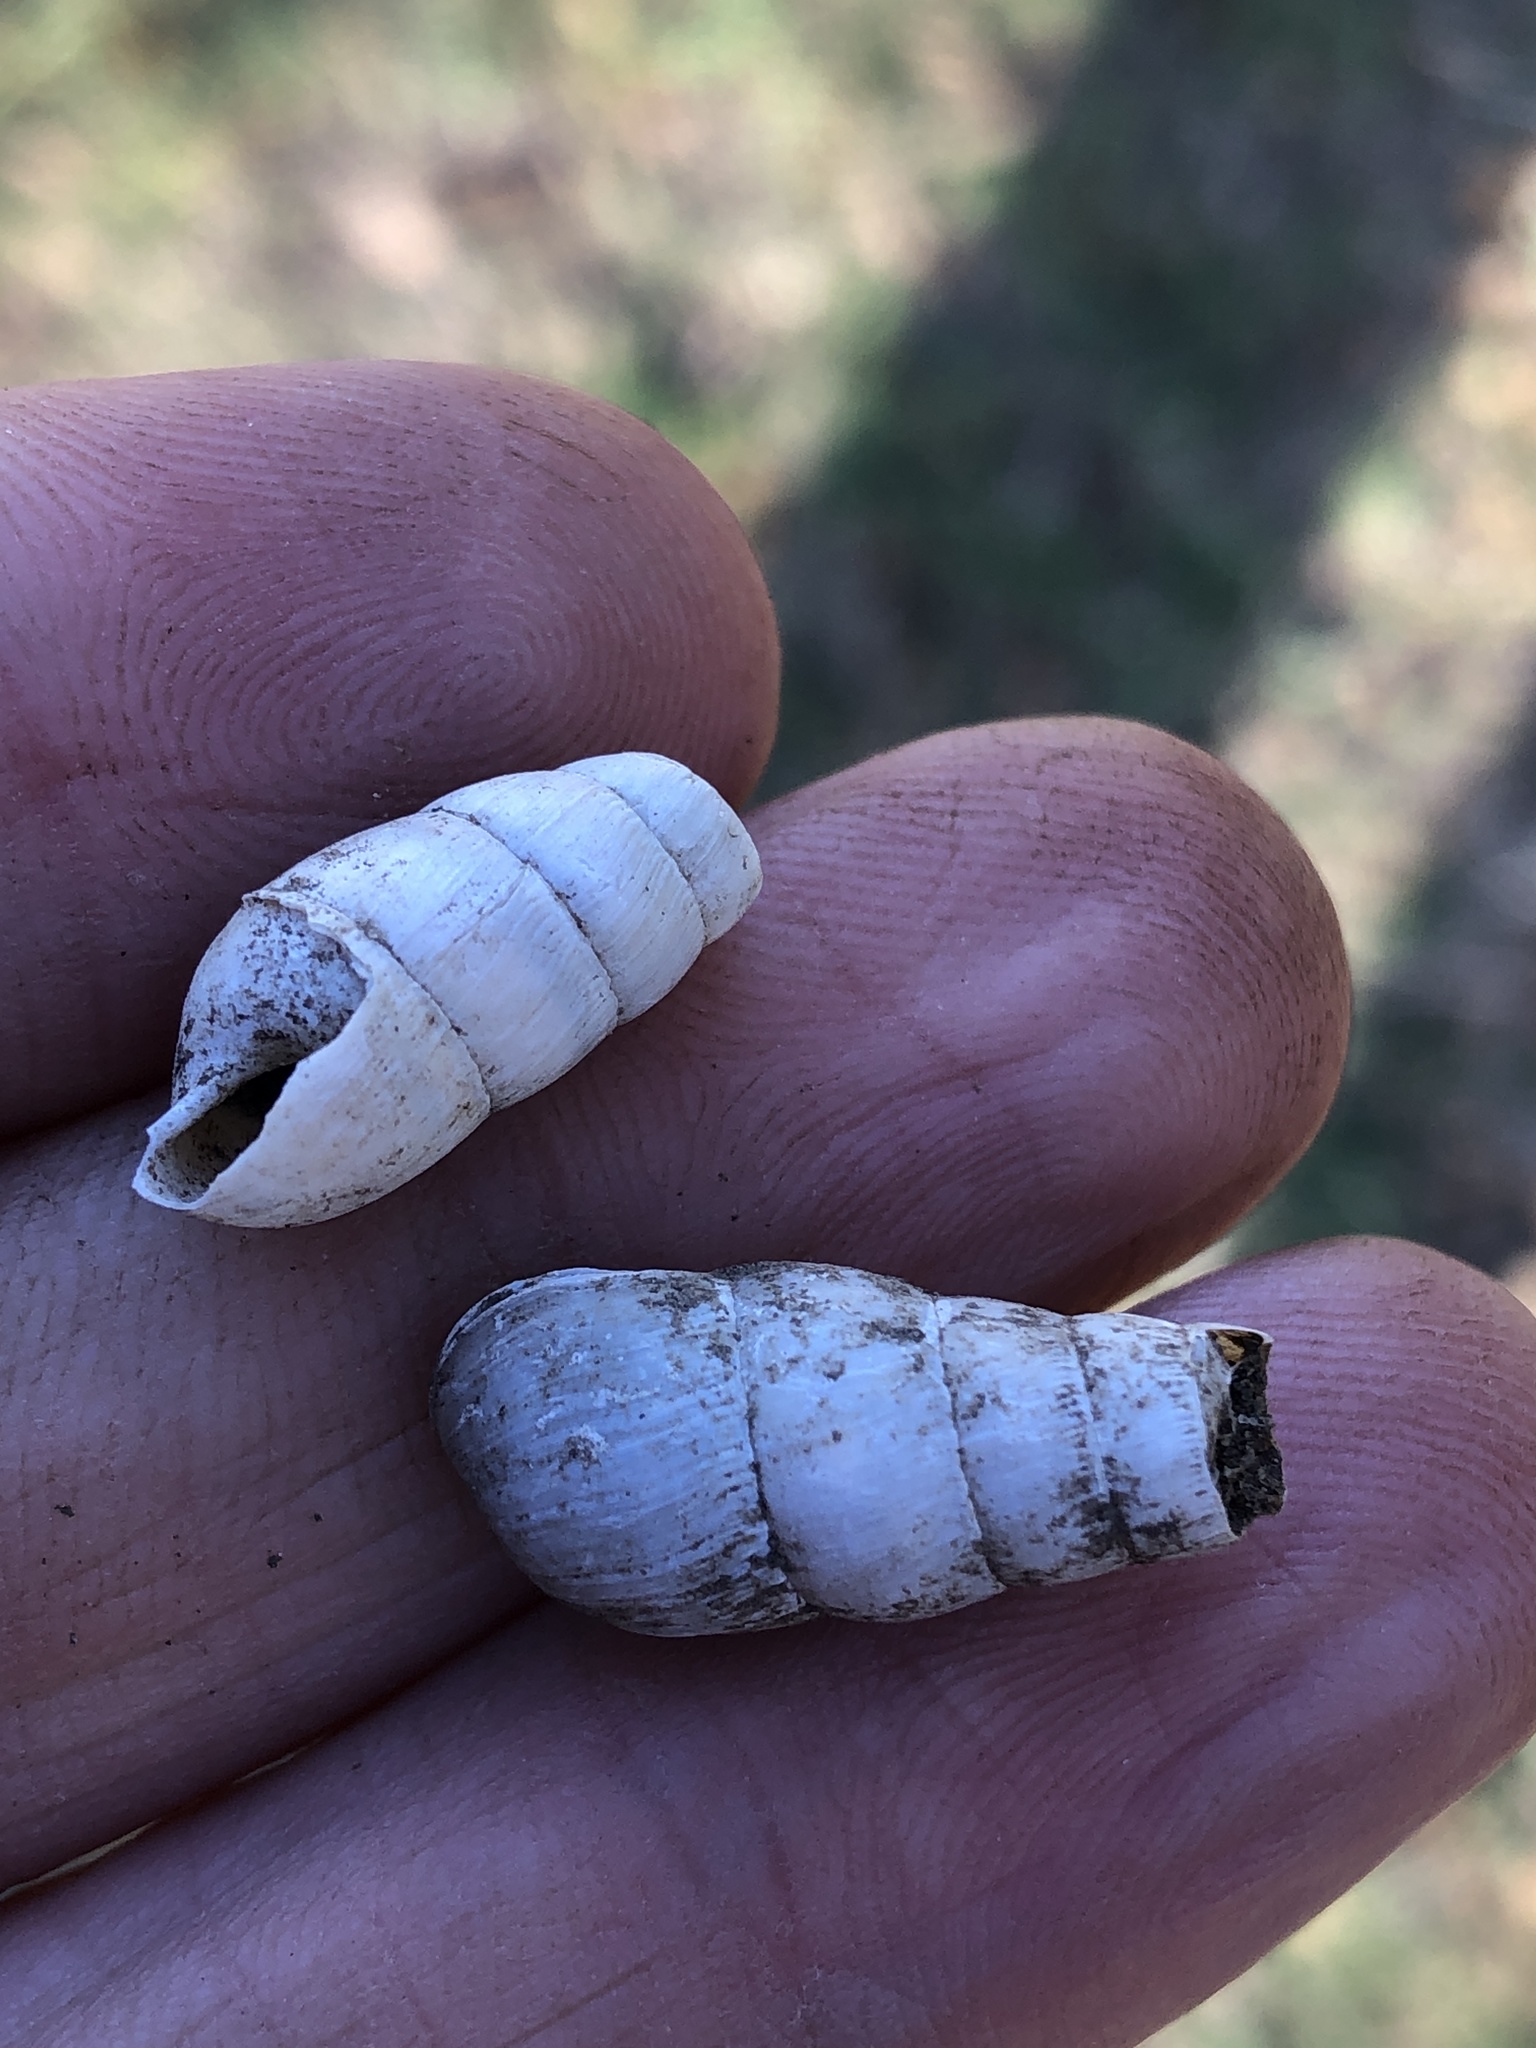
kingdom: Animalia
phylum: Mollusca
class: Gastropoda
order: Stylommatophora
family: Achatinidae
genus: Rumina
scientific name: Rumina decollata
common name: Decollate snail
